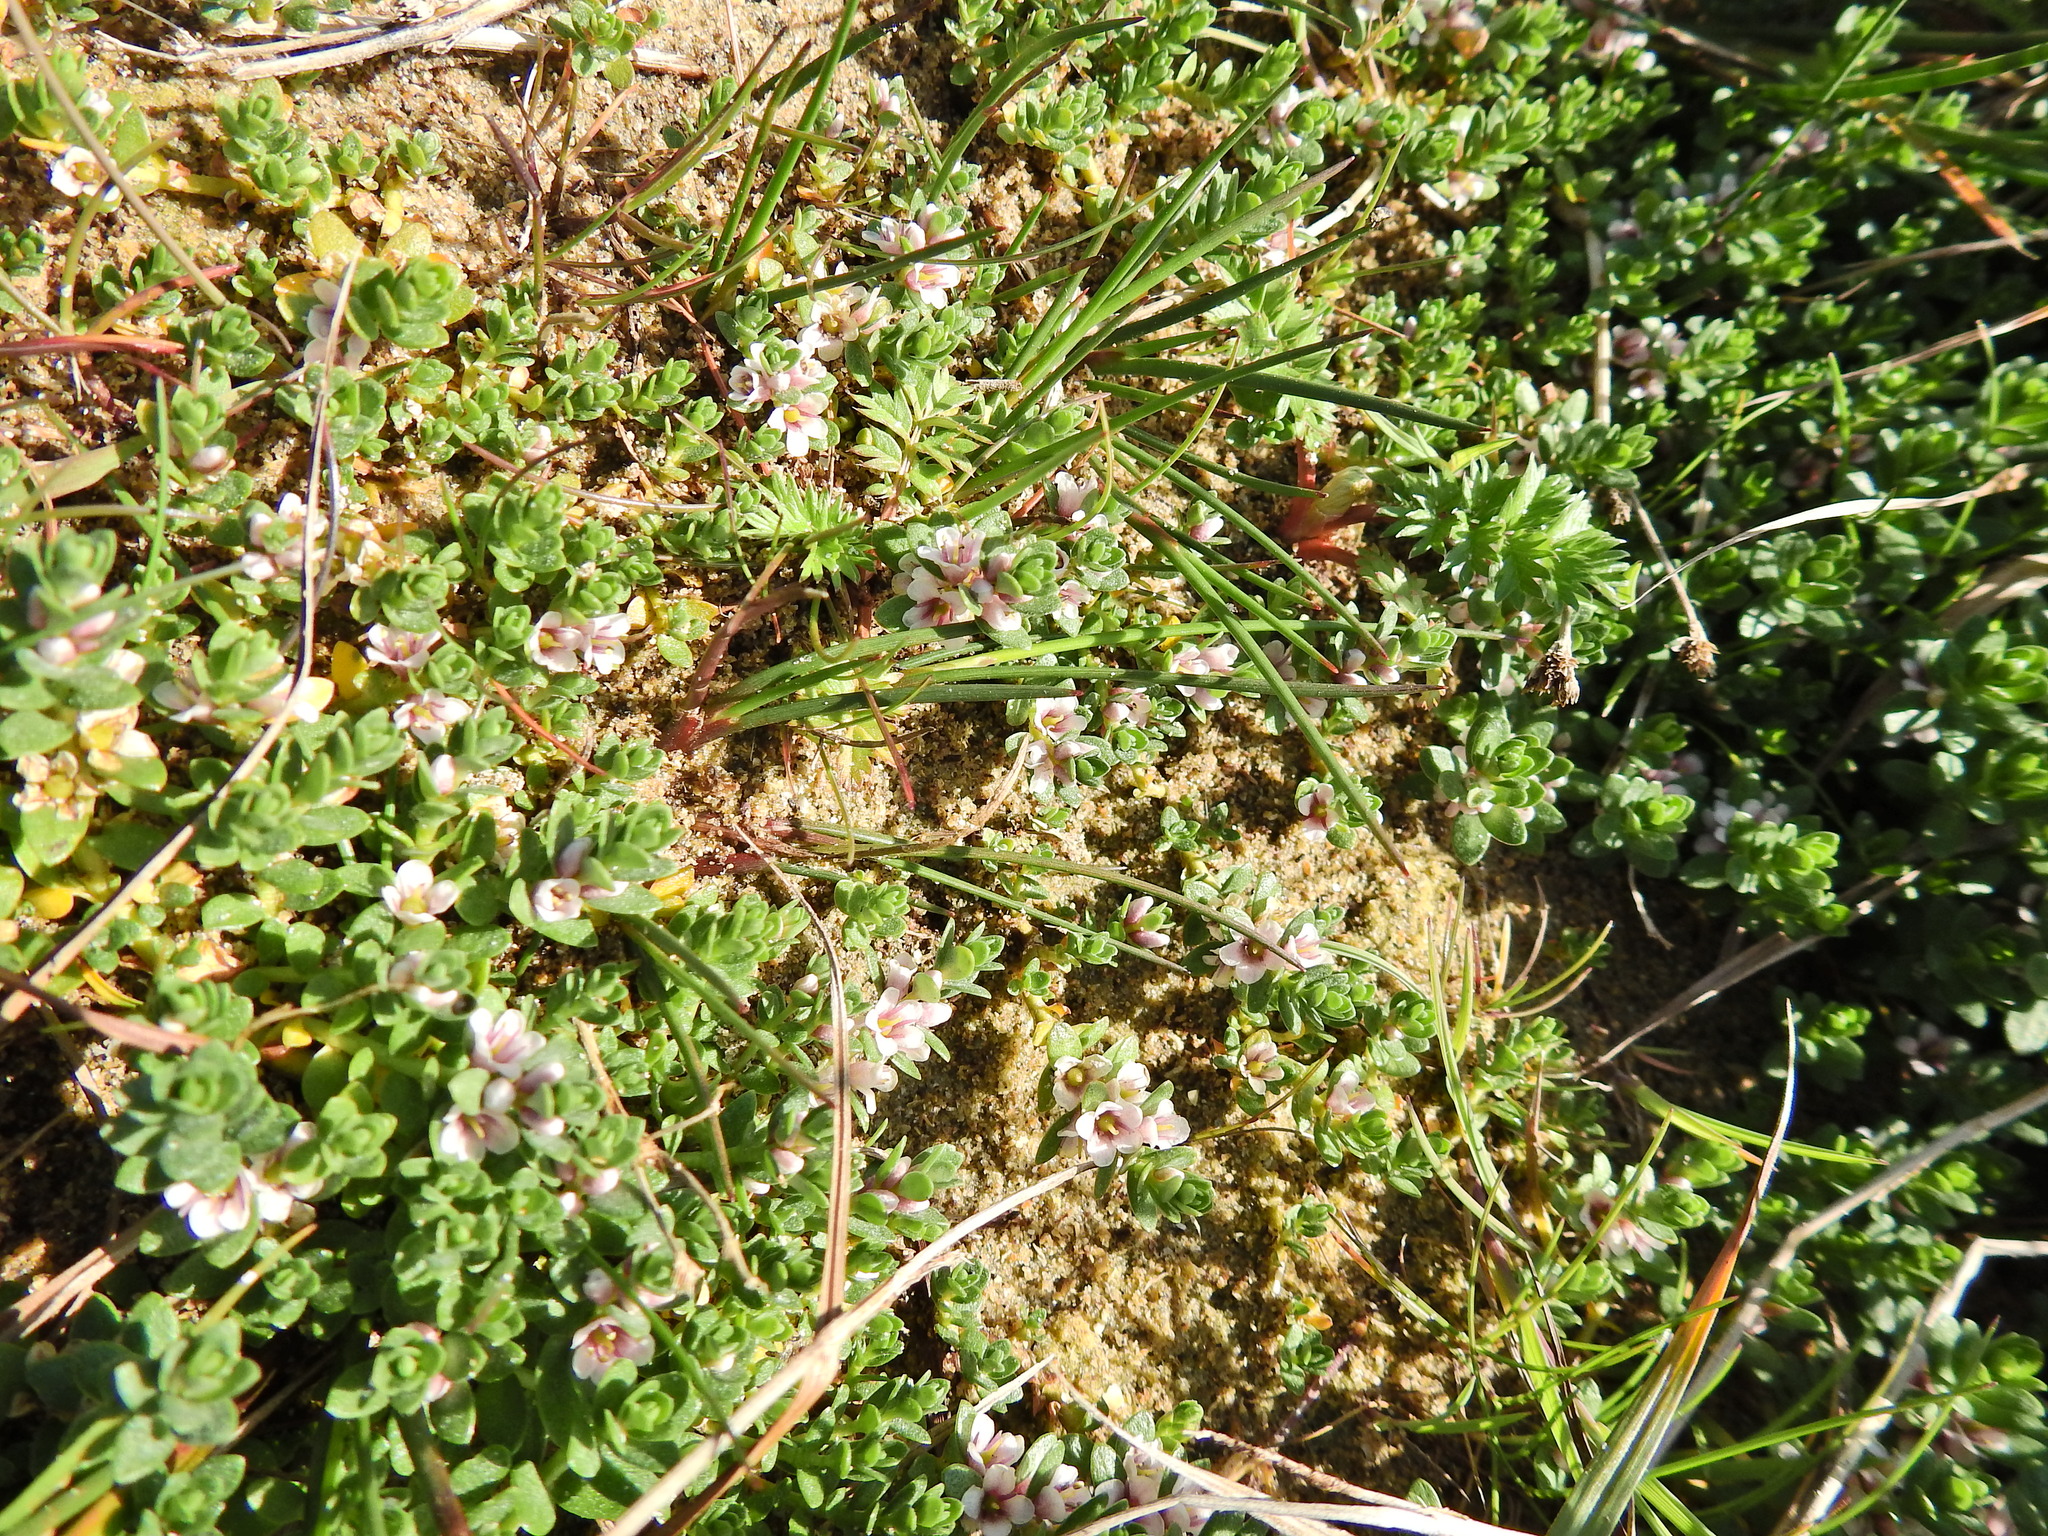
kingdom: Plantae
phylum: Tracheophyta
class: Magnoliopsida
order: Ericales
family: Primulaceae
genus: Lysimachia
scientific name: Lysimachia maritima
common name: Sea milkwort
